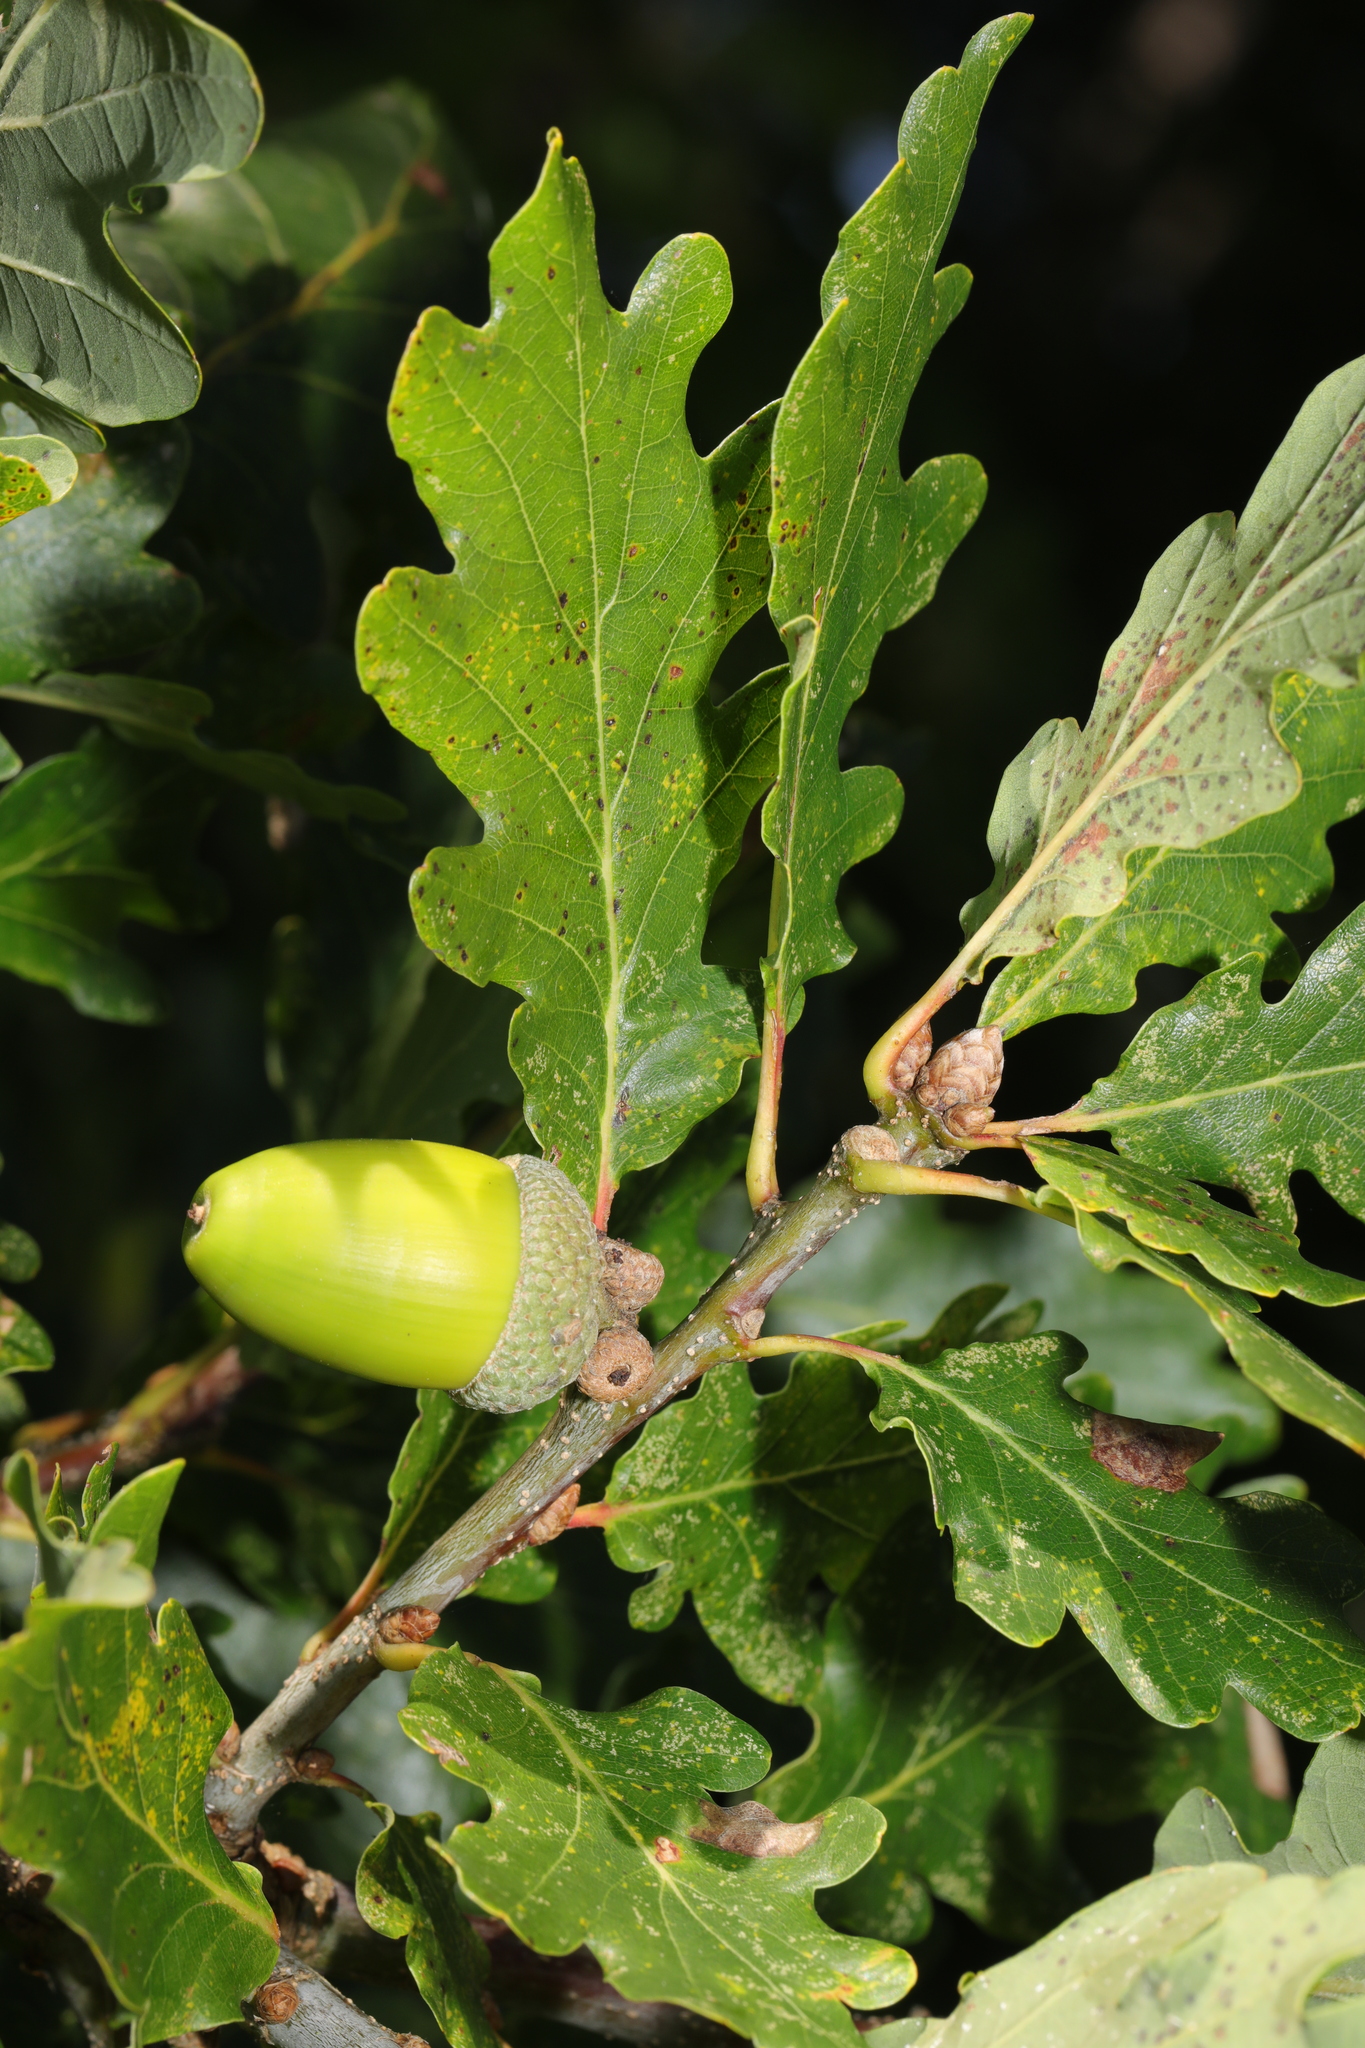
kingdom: Plantae
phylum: Tracheophyta
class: Magnoliopsida
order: Fagales
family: Fagaceae
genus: Quercus
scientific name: Quercus petraea
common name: Sessile oak
